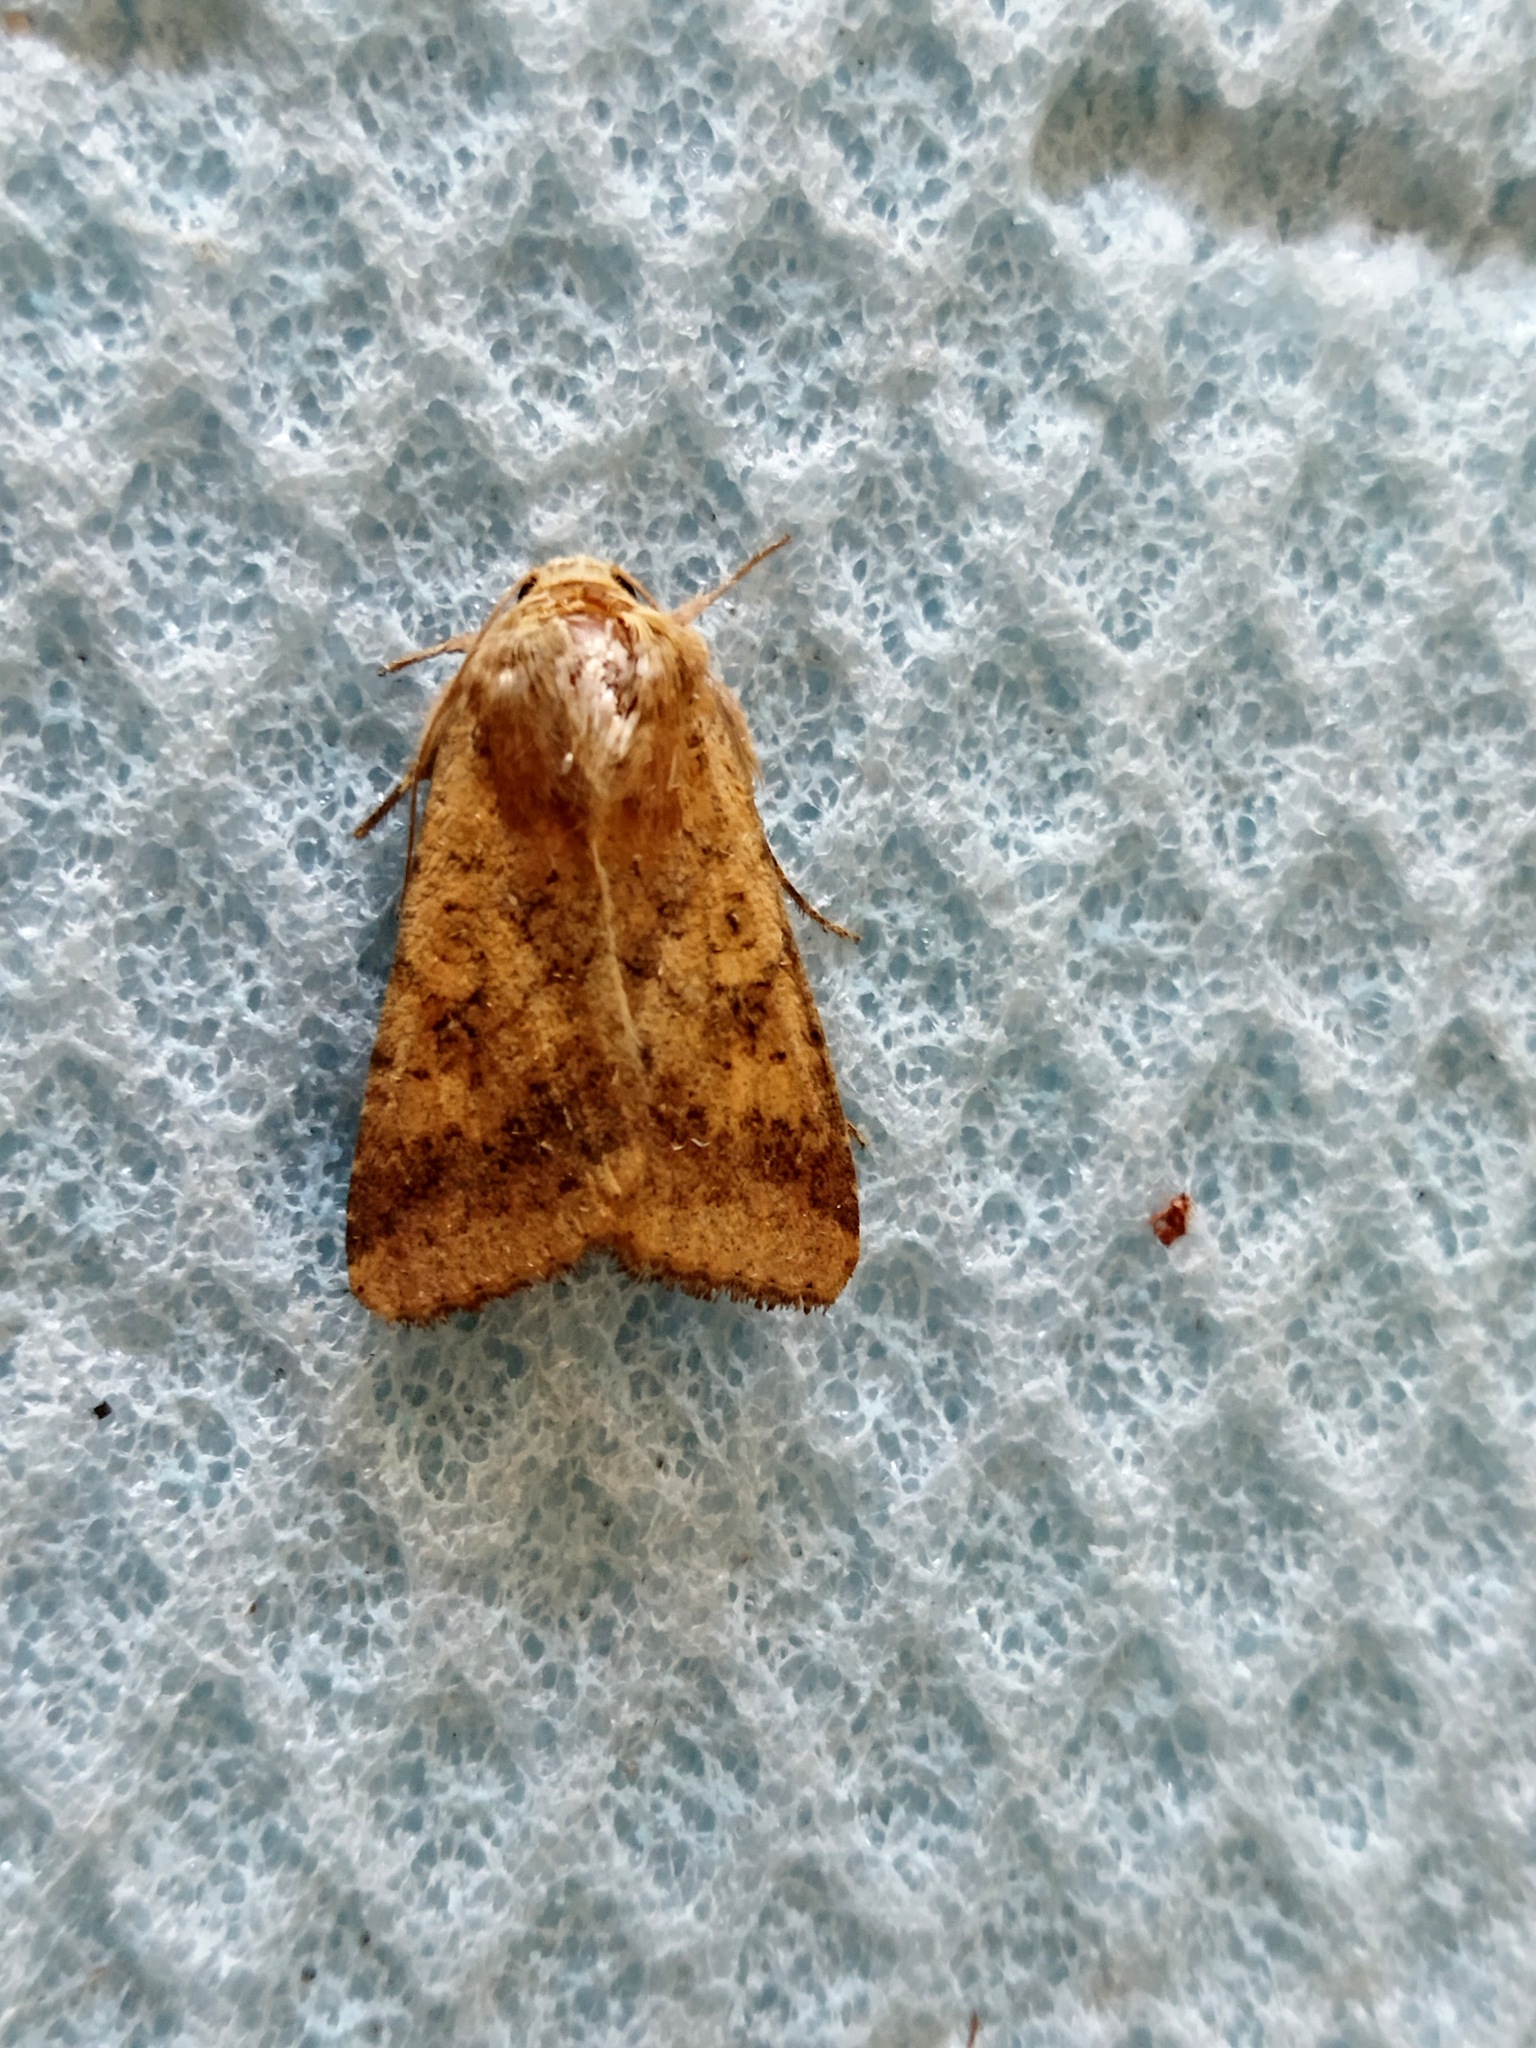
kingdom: Animalia
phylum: Arthropoda
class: Insecta
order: Lepidoptera
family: Noctuidae
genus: Helicoverpa
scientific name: Helicoverpa armigera
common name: Cotton bollworm
